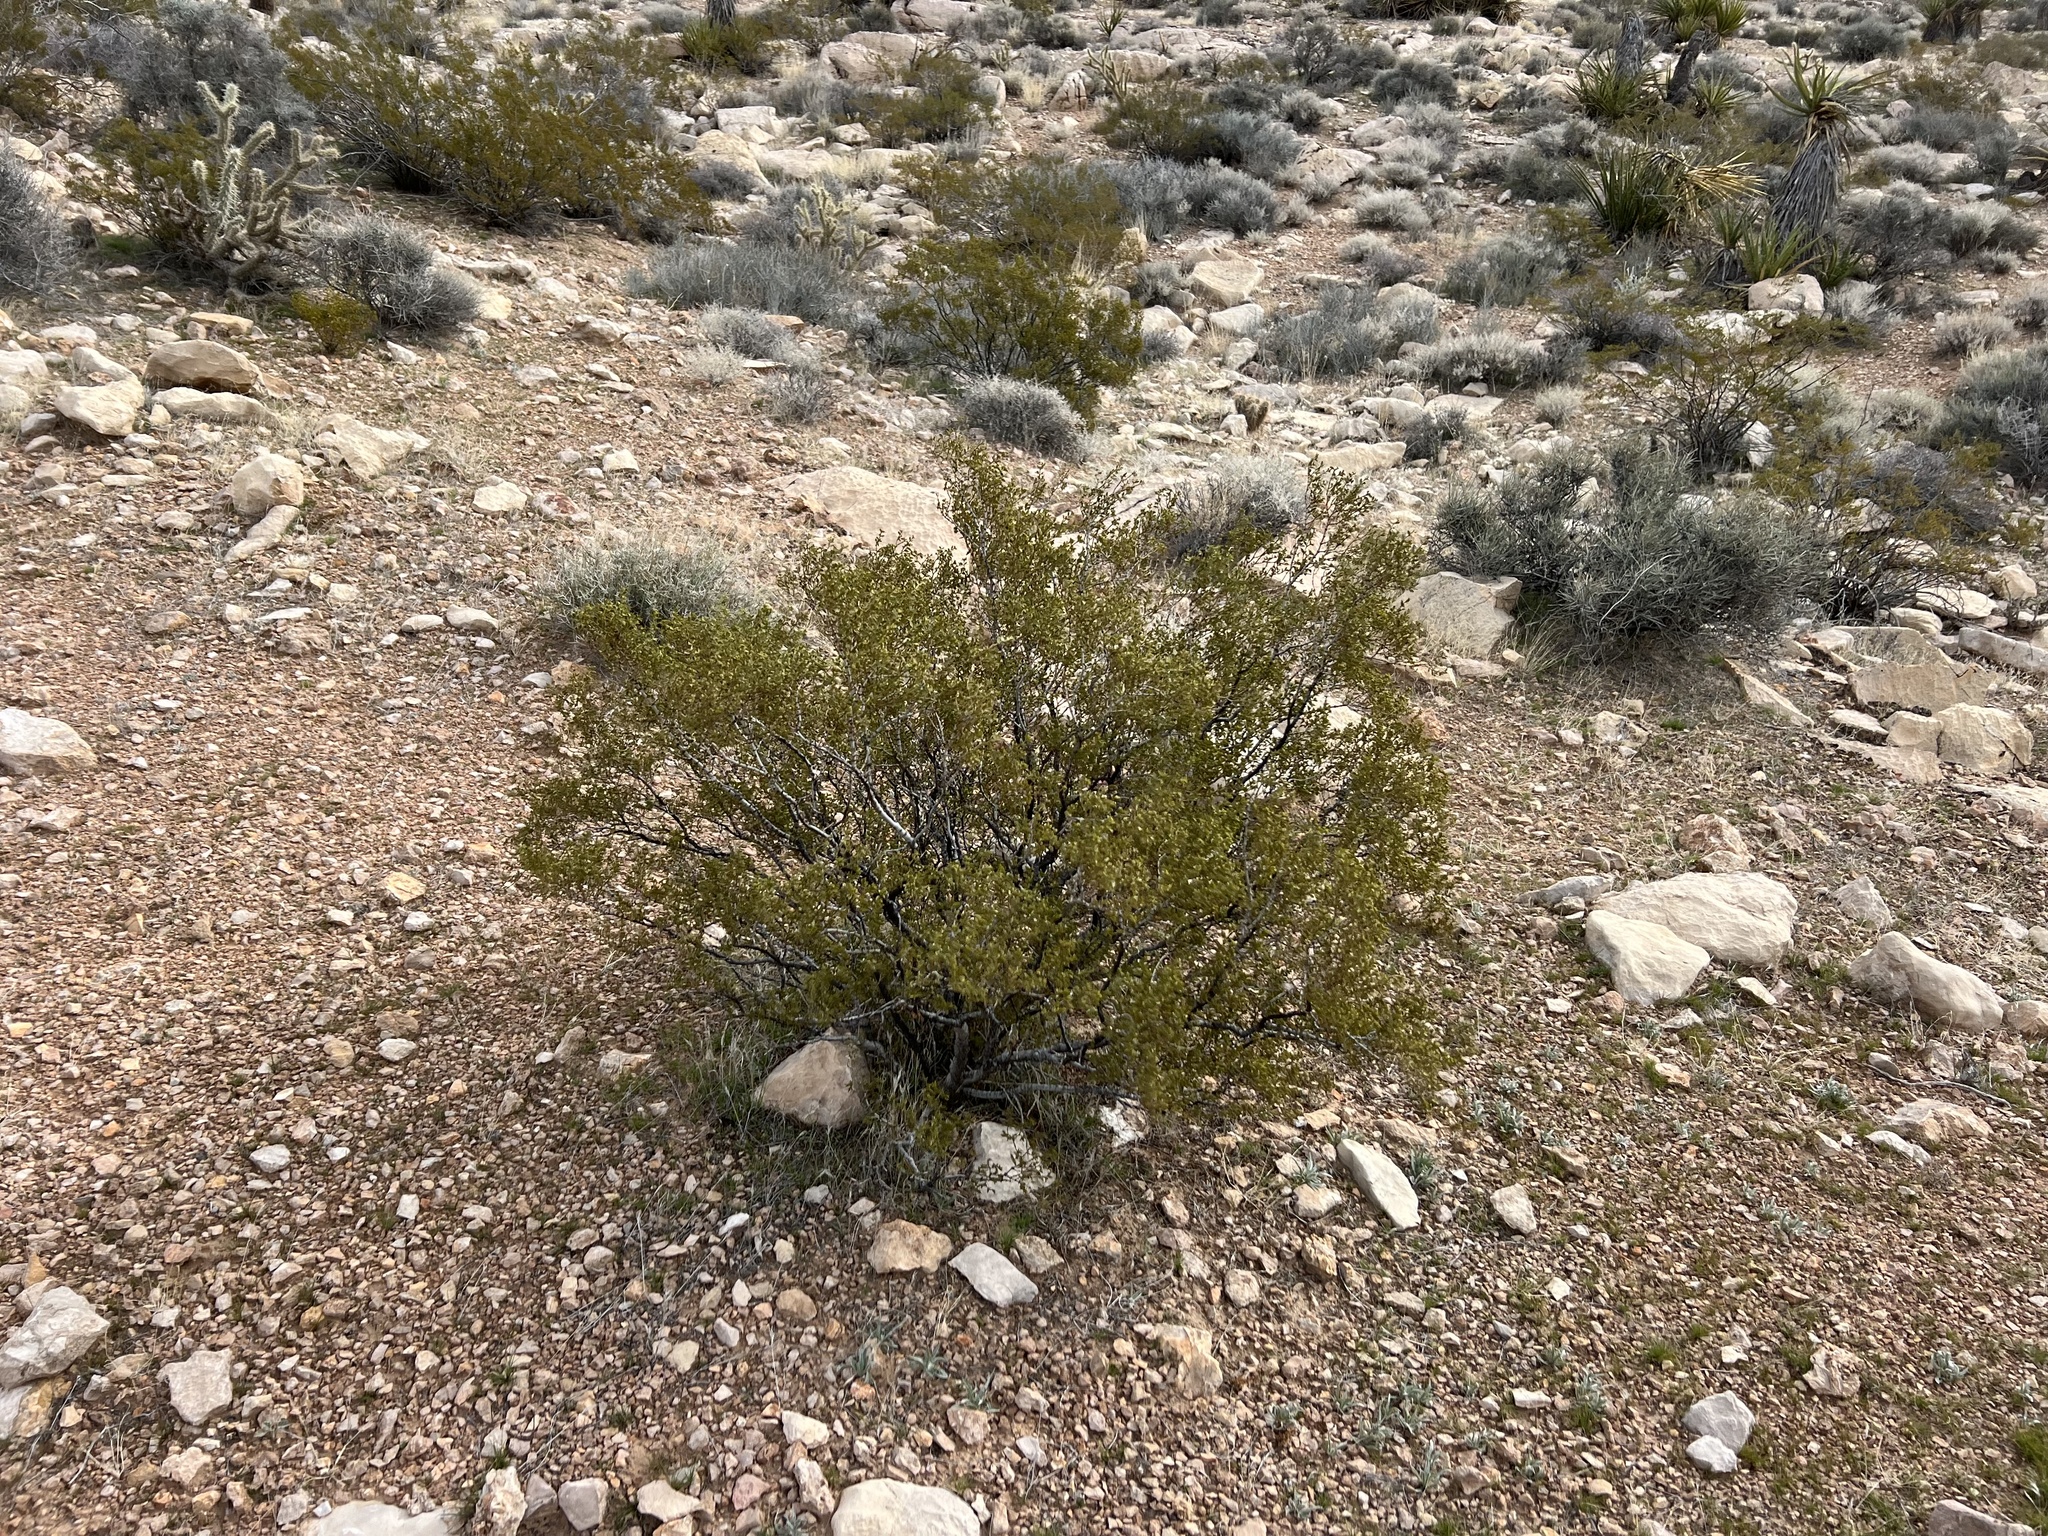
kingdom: Plantae
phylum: Tracheophyta
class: Magnoliopsida
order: Zygophyllales
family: Zygophyllaceae
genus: Larrea
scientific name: Larrea tridentata
